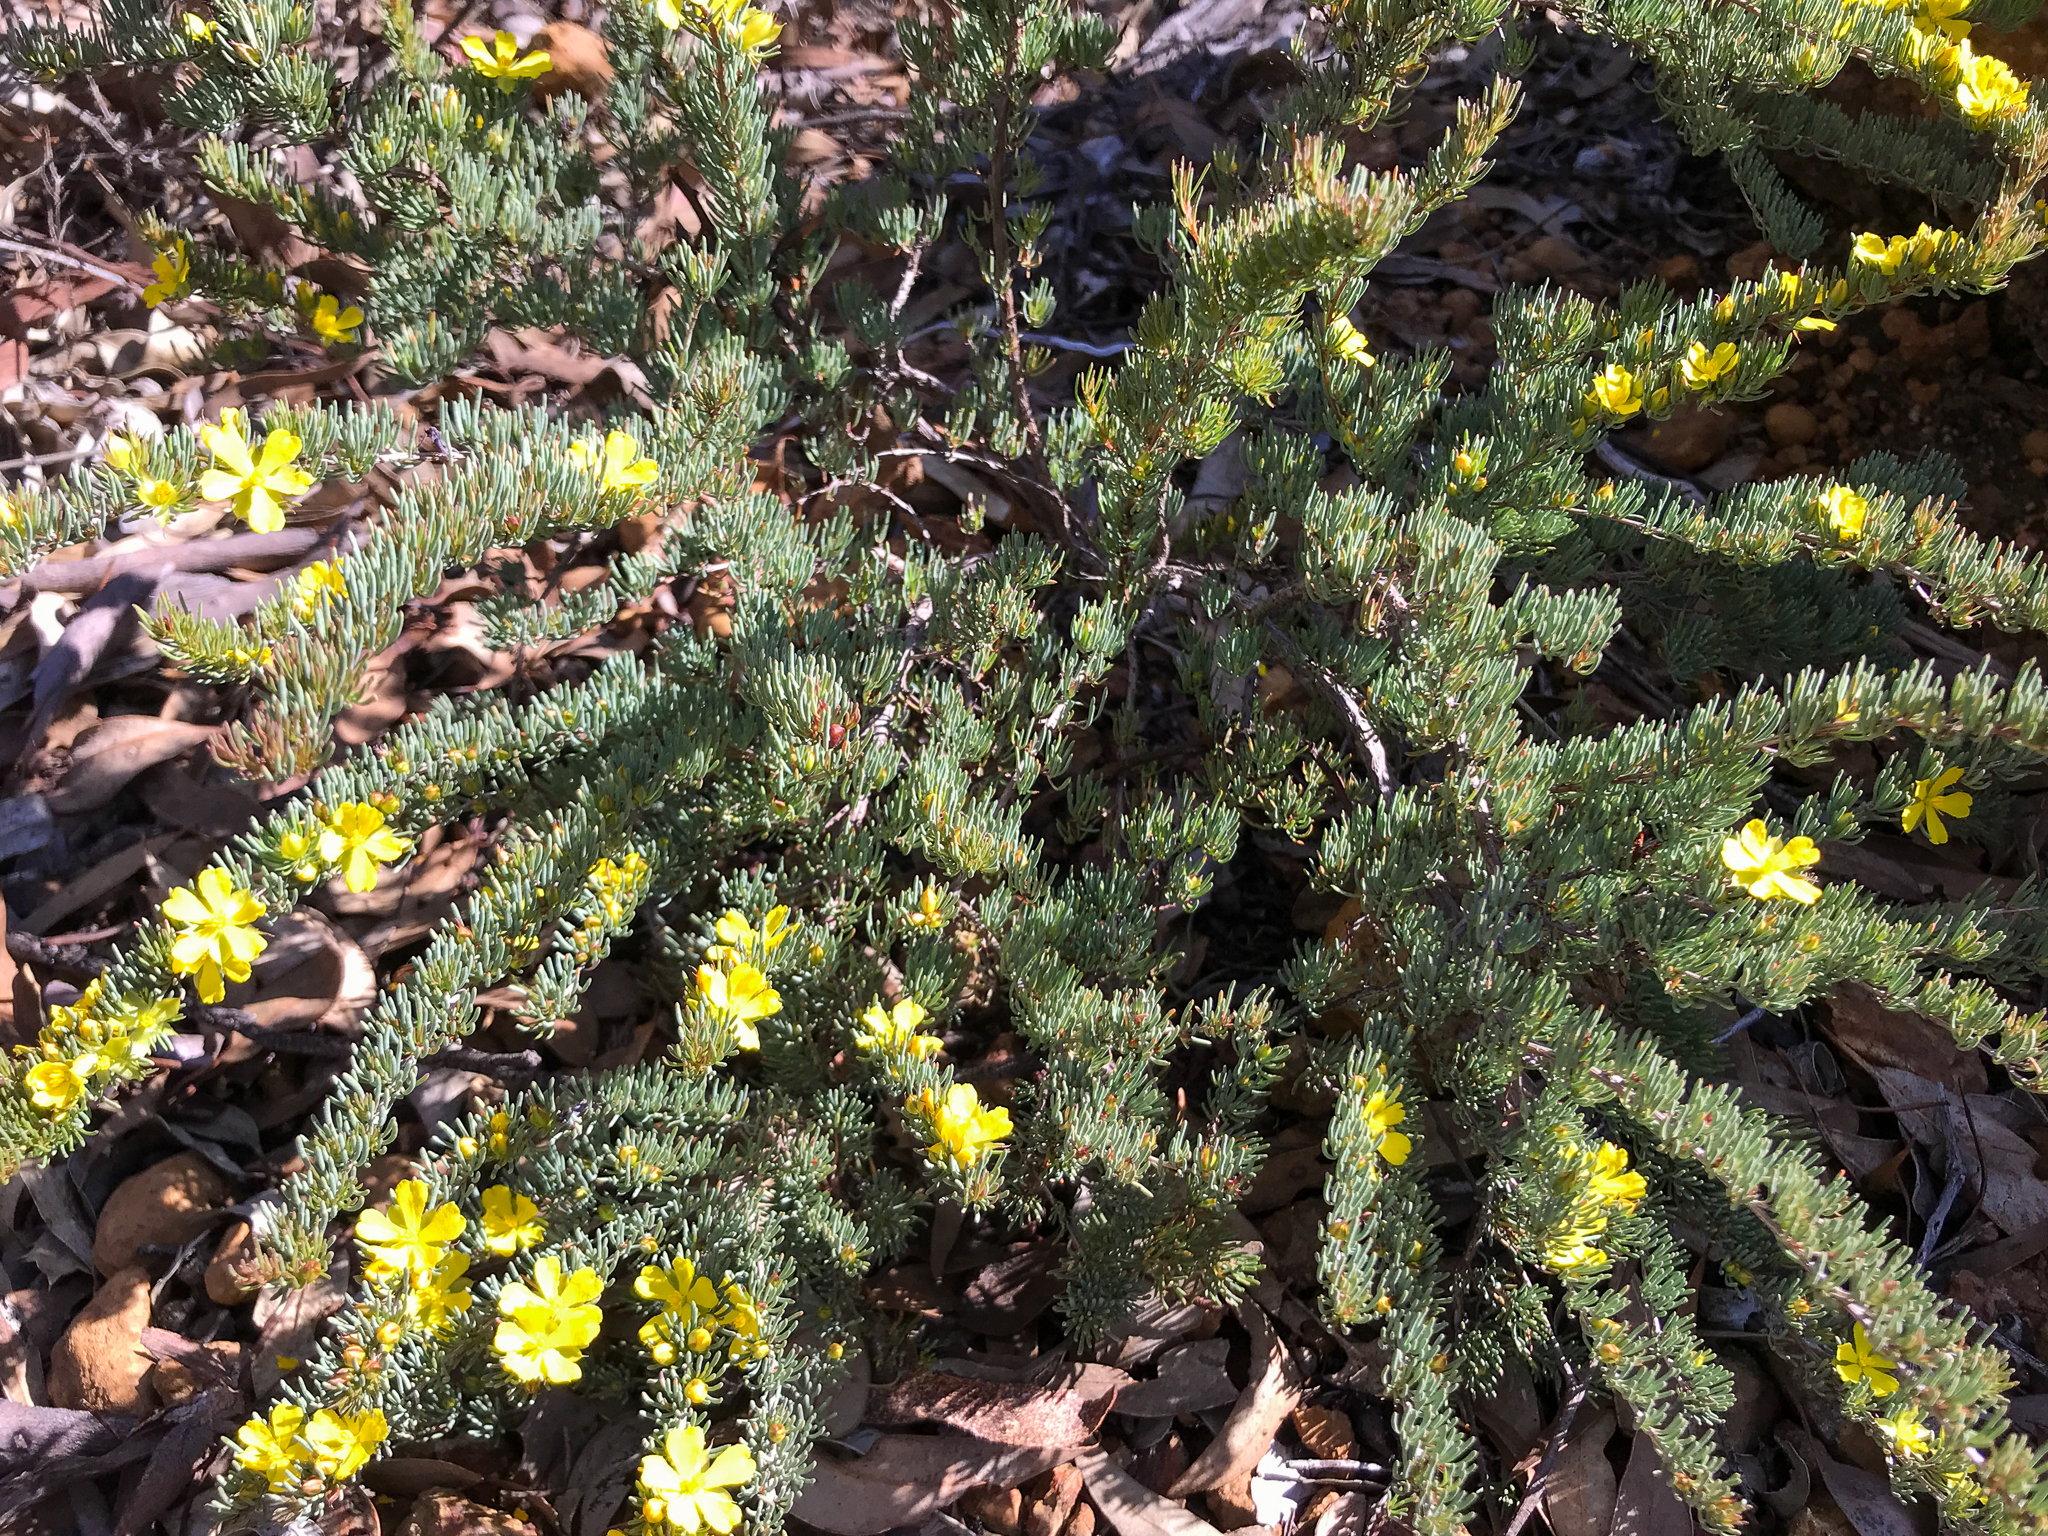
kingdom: Plantae
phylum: Tracheophyta
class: Magnoliopsida
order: Dilleniales
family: Dilleniaceae
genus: Hibbertia
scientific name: Hibbertia hibbertioides
